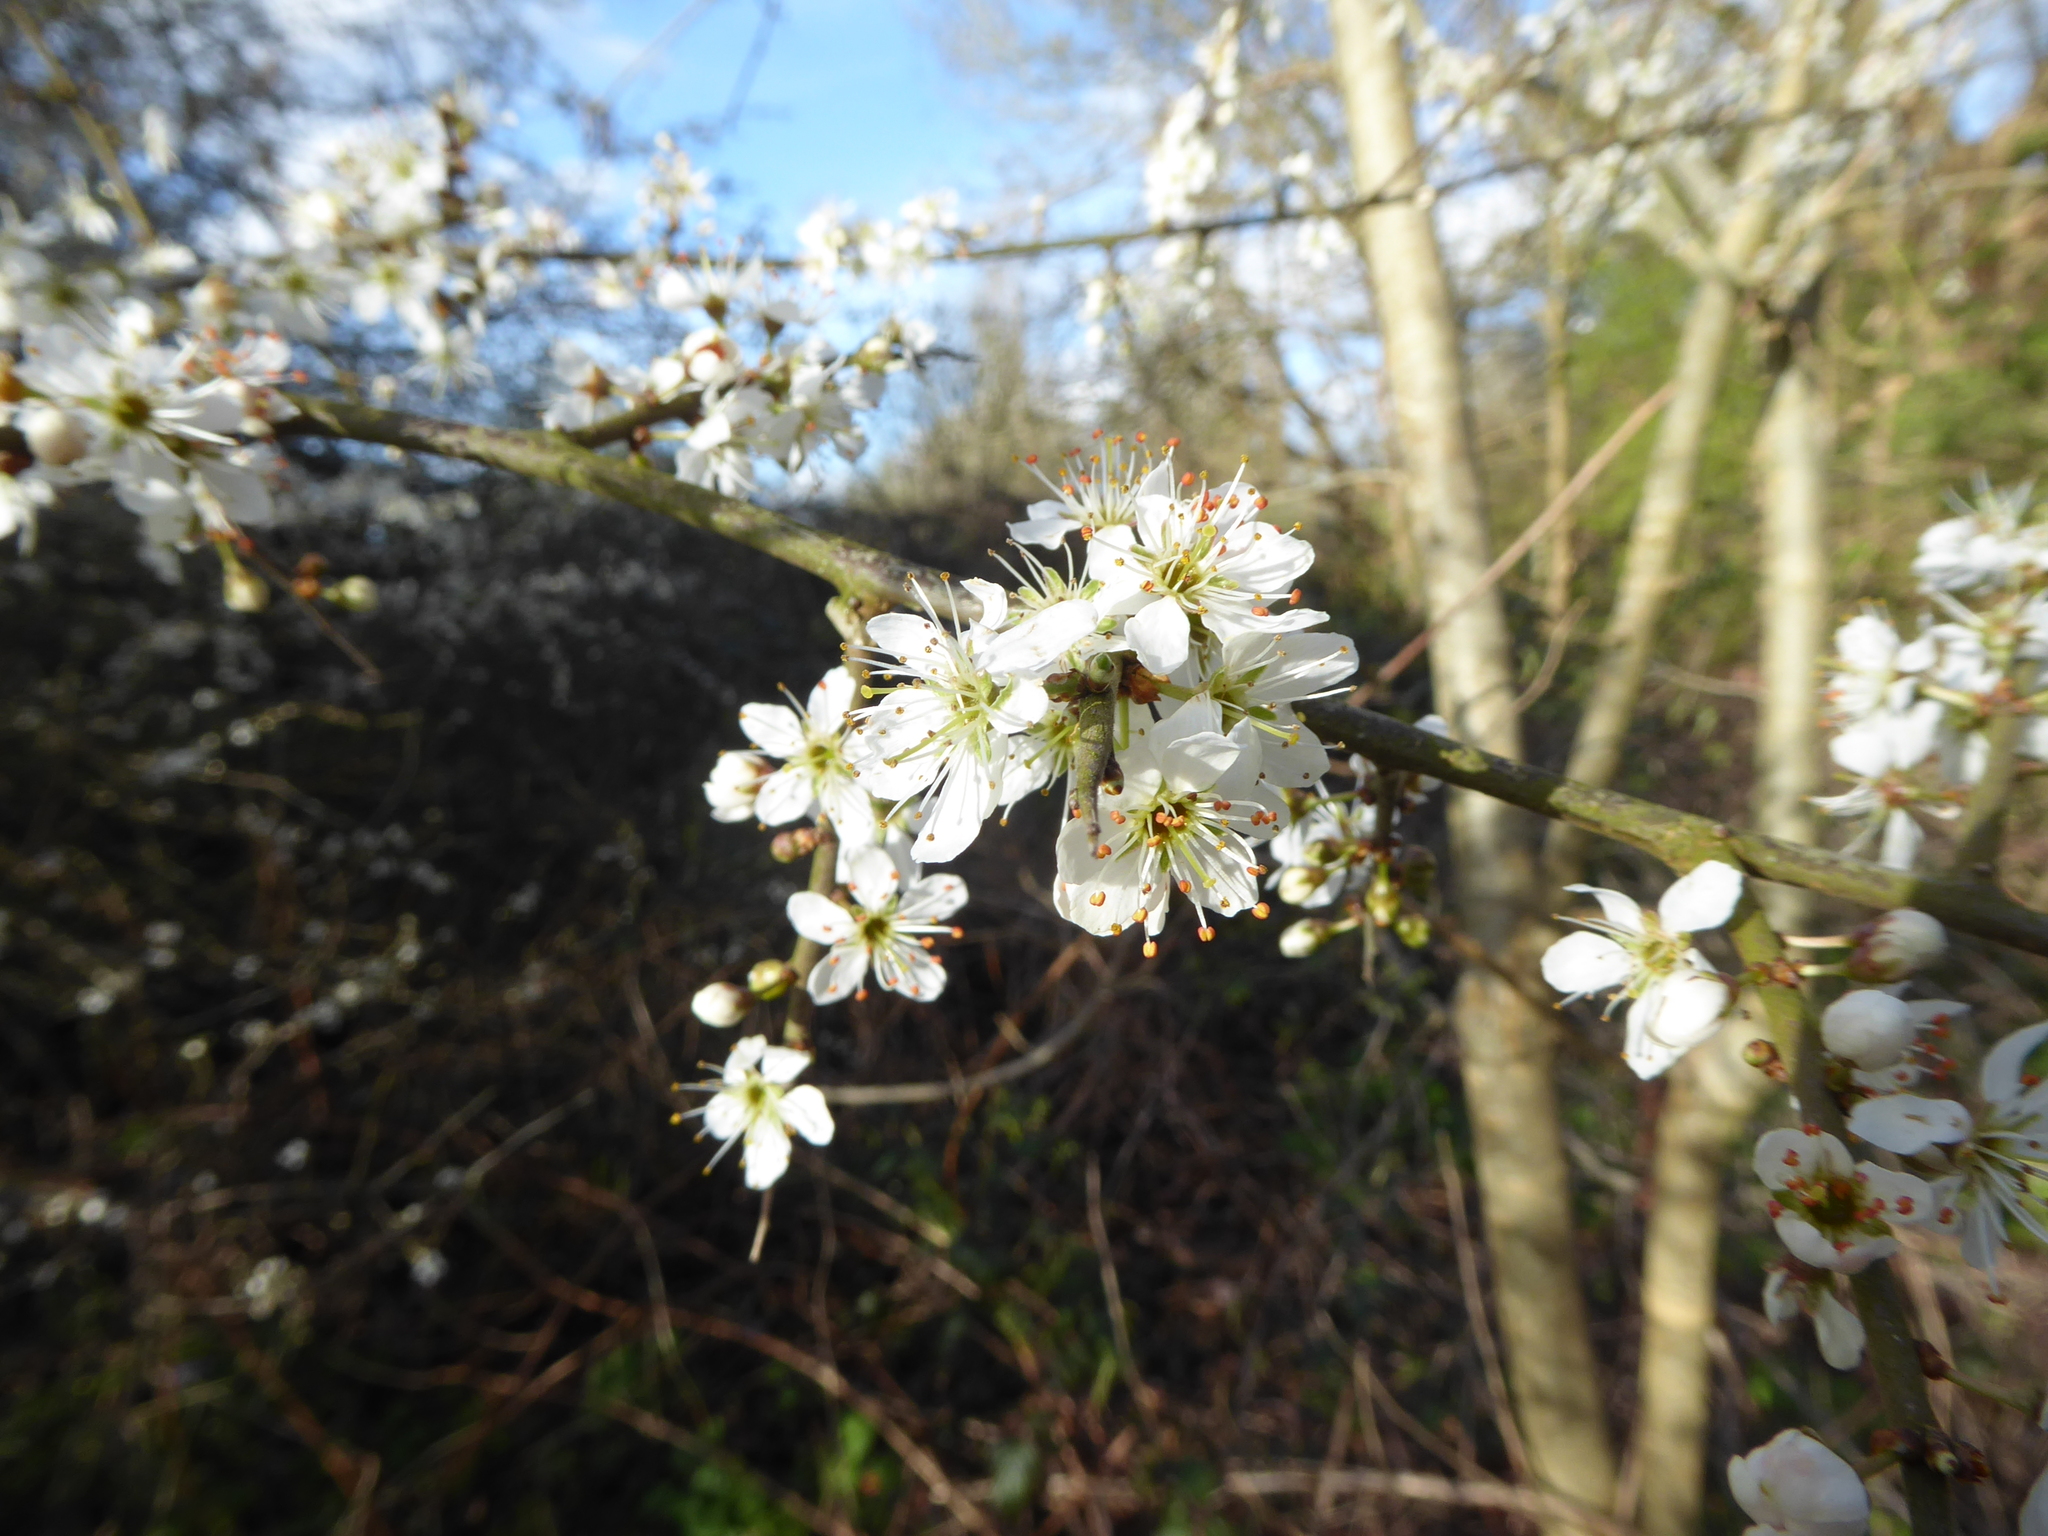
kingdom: Plantae
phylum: Tracheophyta
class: Magnoliopsida
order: Rosales
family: Rosaceae
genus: Prunus
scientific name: Prunus spinosa
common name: Blackthorn
